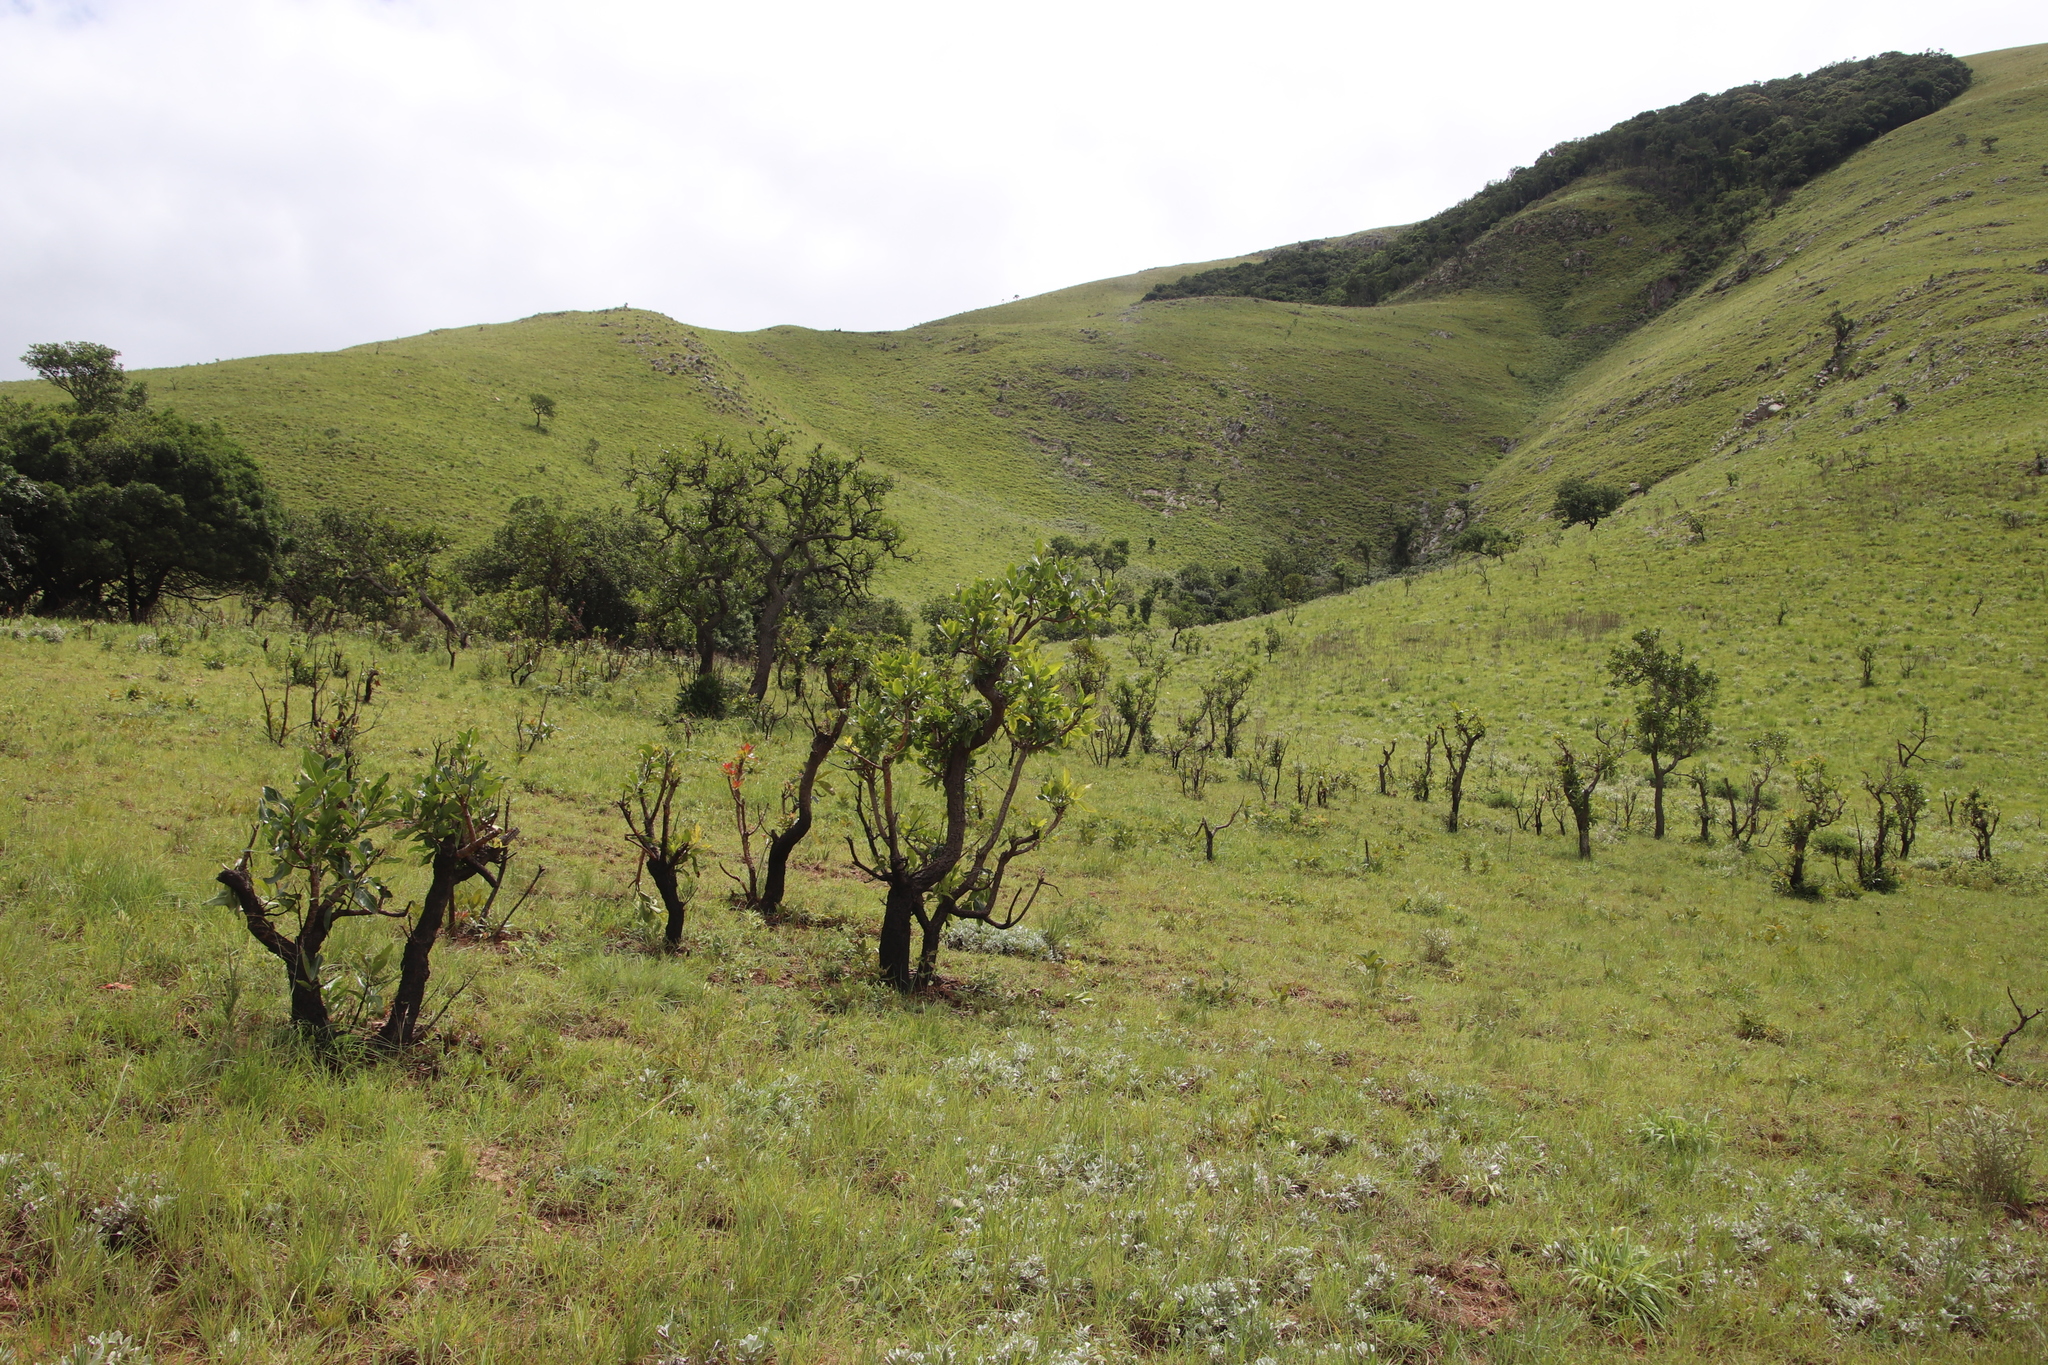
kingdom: Plantae
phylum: Tracheophyta
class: Magnoliopsida
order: Proteales
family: Proteaceae
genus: Faurea
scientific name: Faurea rochetiana
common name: Broad-leaved beech
